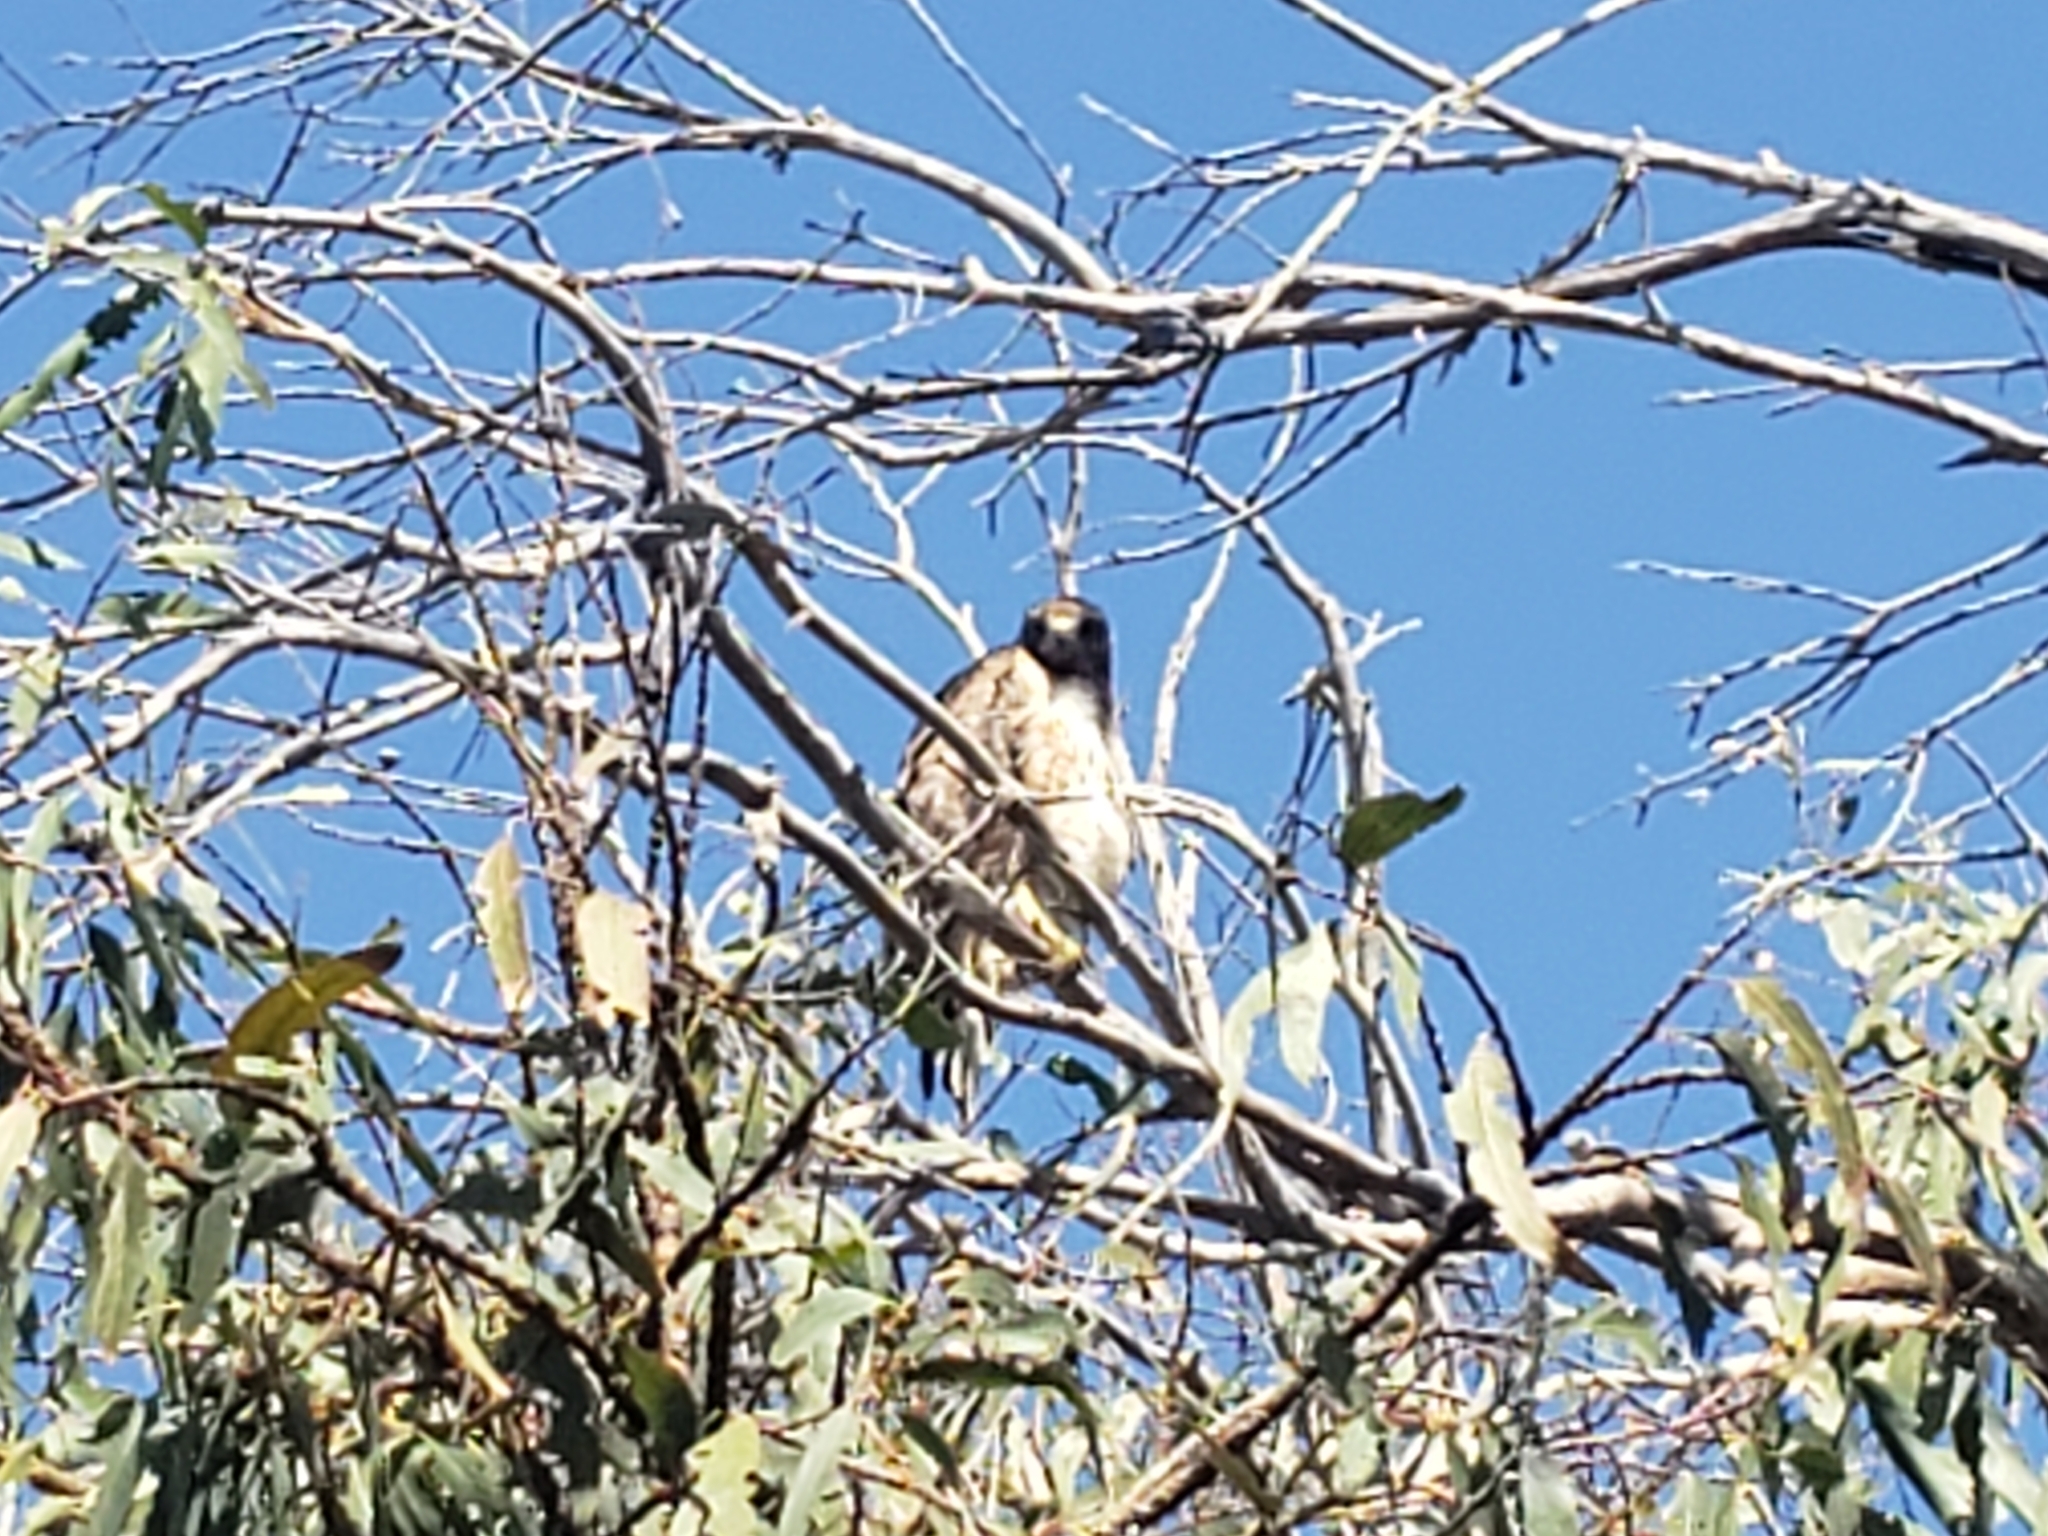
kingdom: Animalia
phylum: Chordata
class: Aves
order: Accipitriformes
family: Accipitridae
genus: Buteo
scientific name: Buteo jamaicensis
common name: Red-tailed hawk
